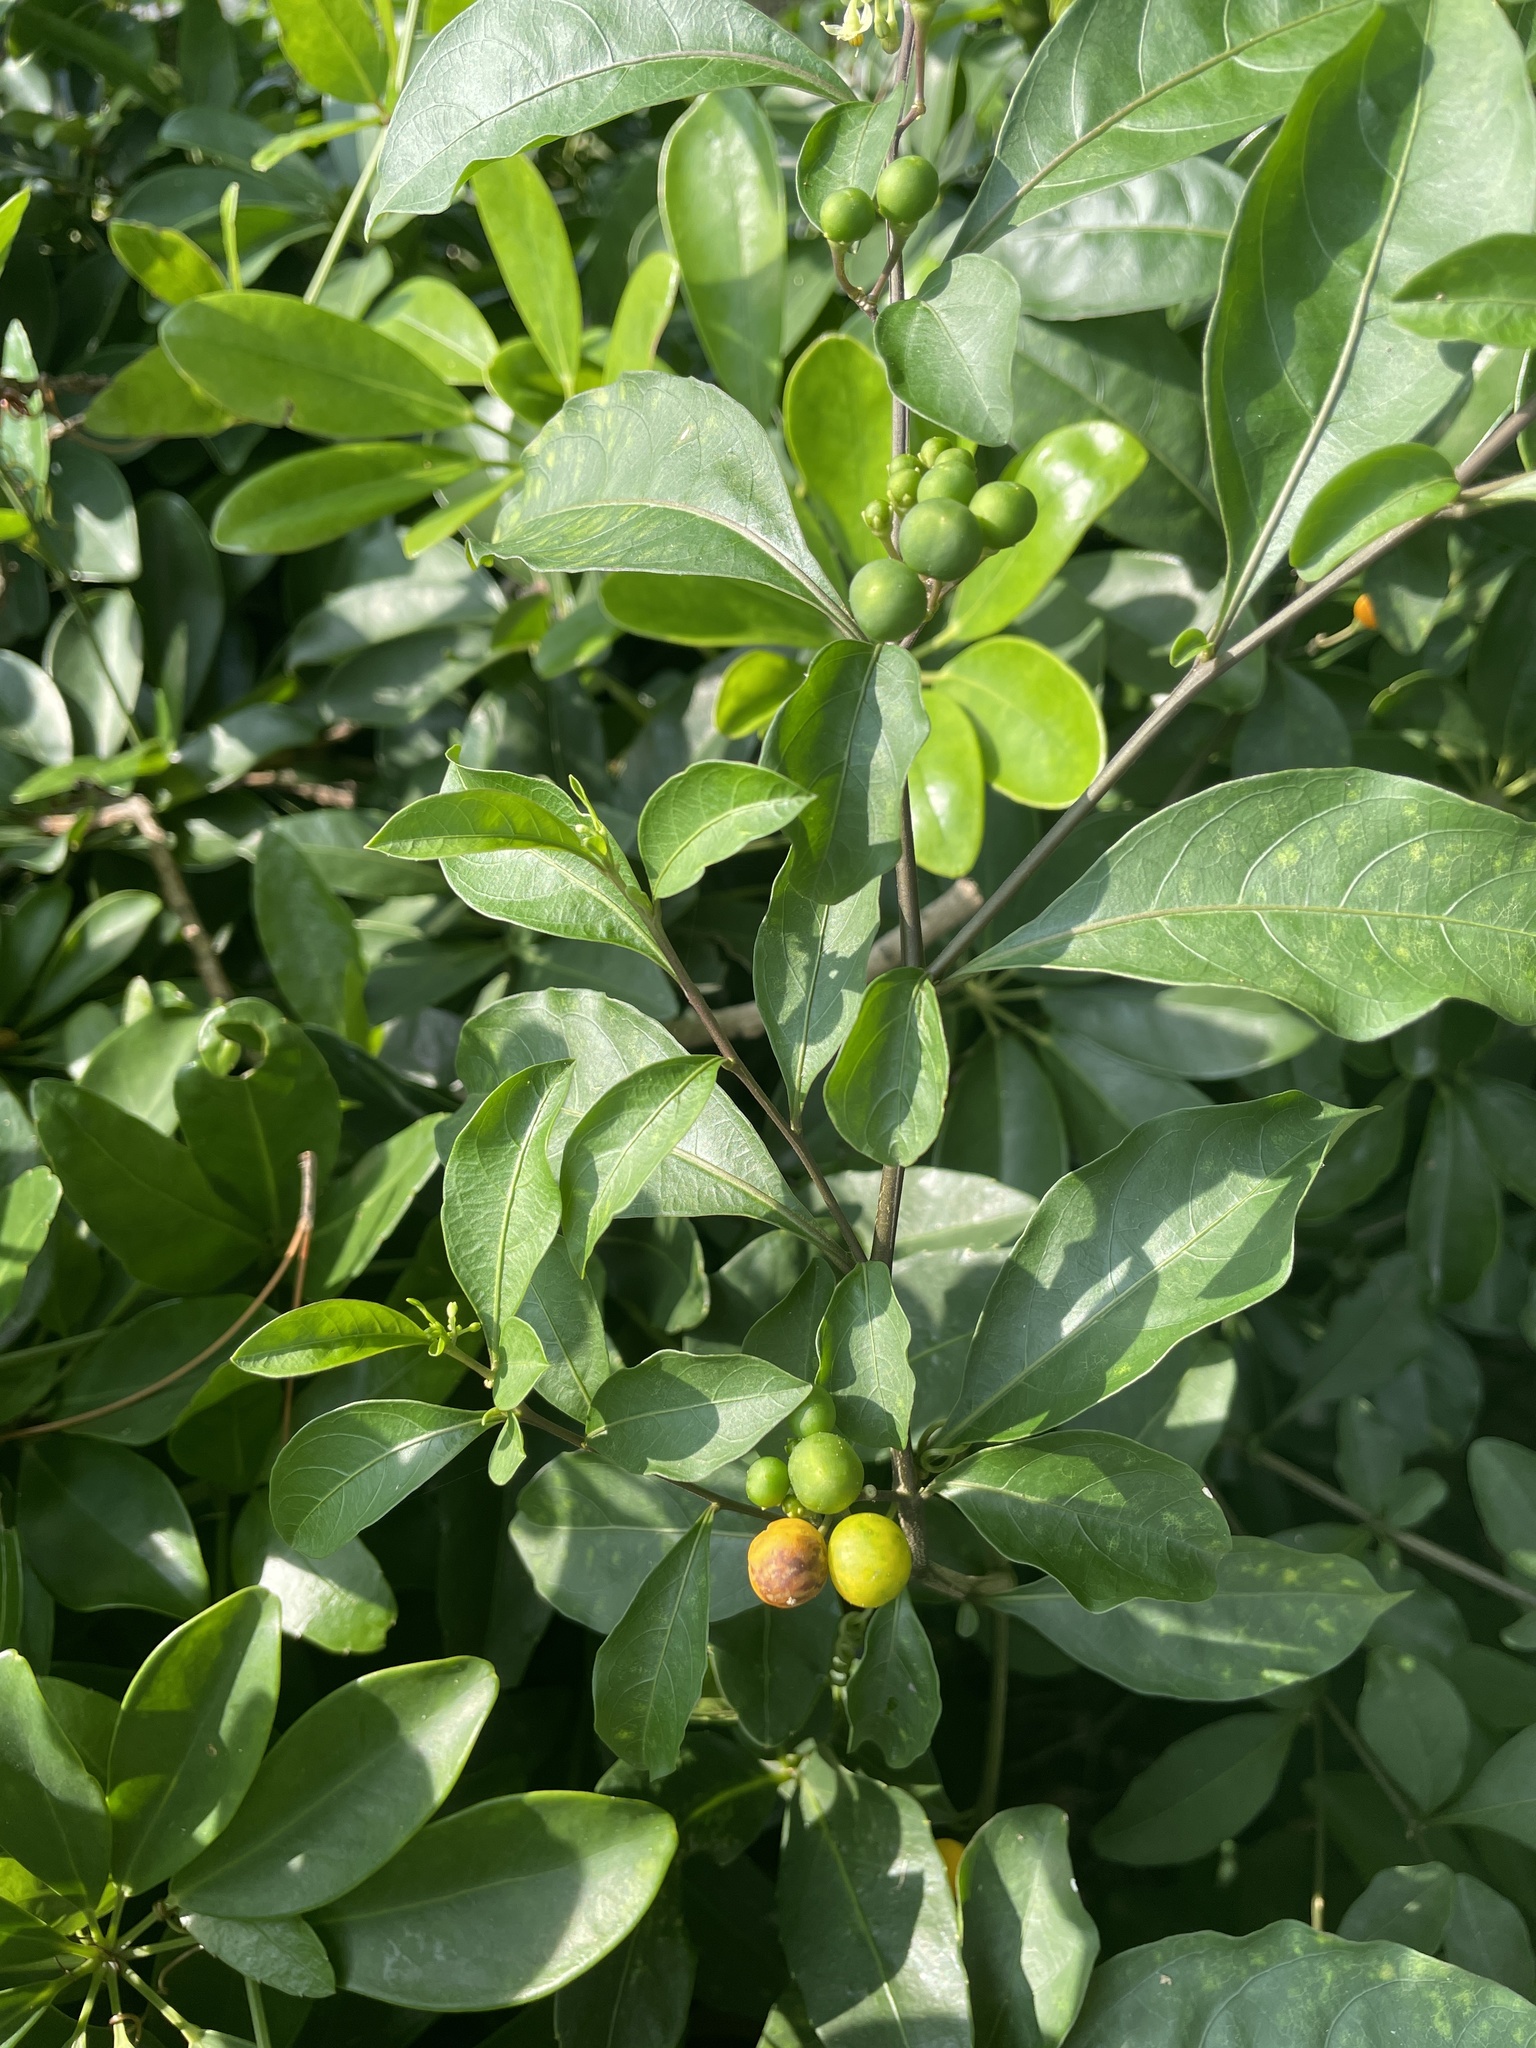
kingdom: Plantae
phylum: Tracheophyta
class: Magnoliopsida
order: Solanales
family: Solanaceae
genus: Solanum
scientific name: Solanum diphyllum
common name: Twoleaf nightshade
